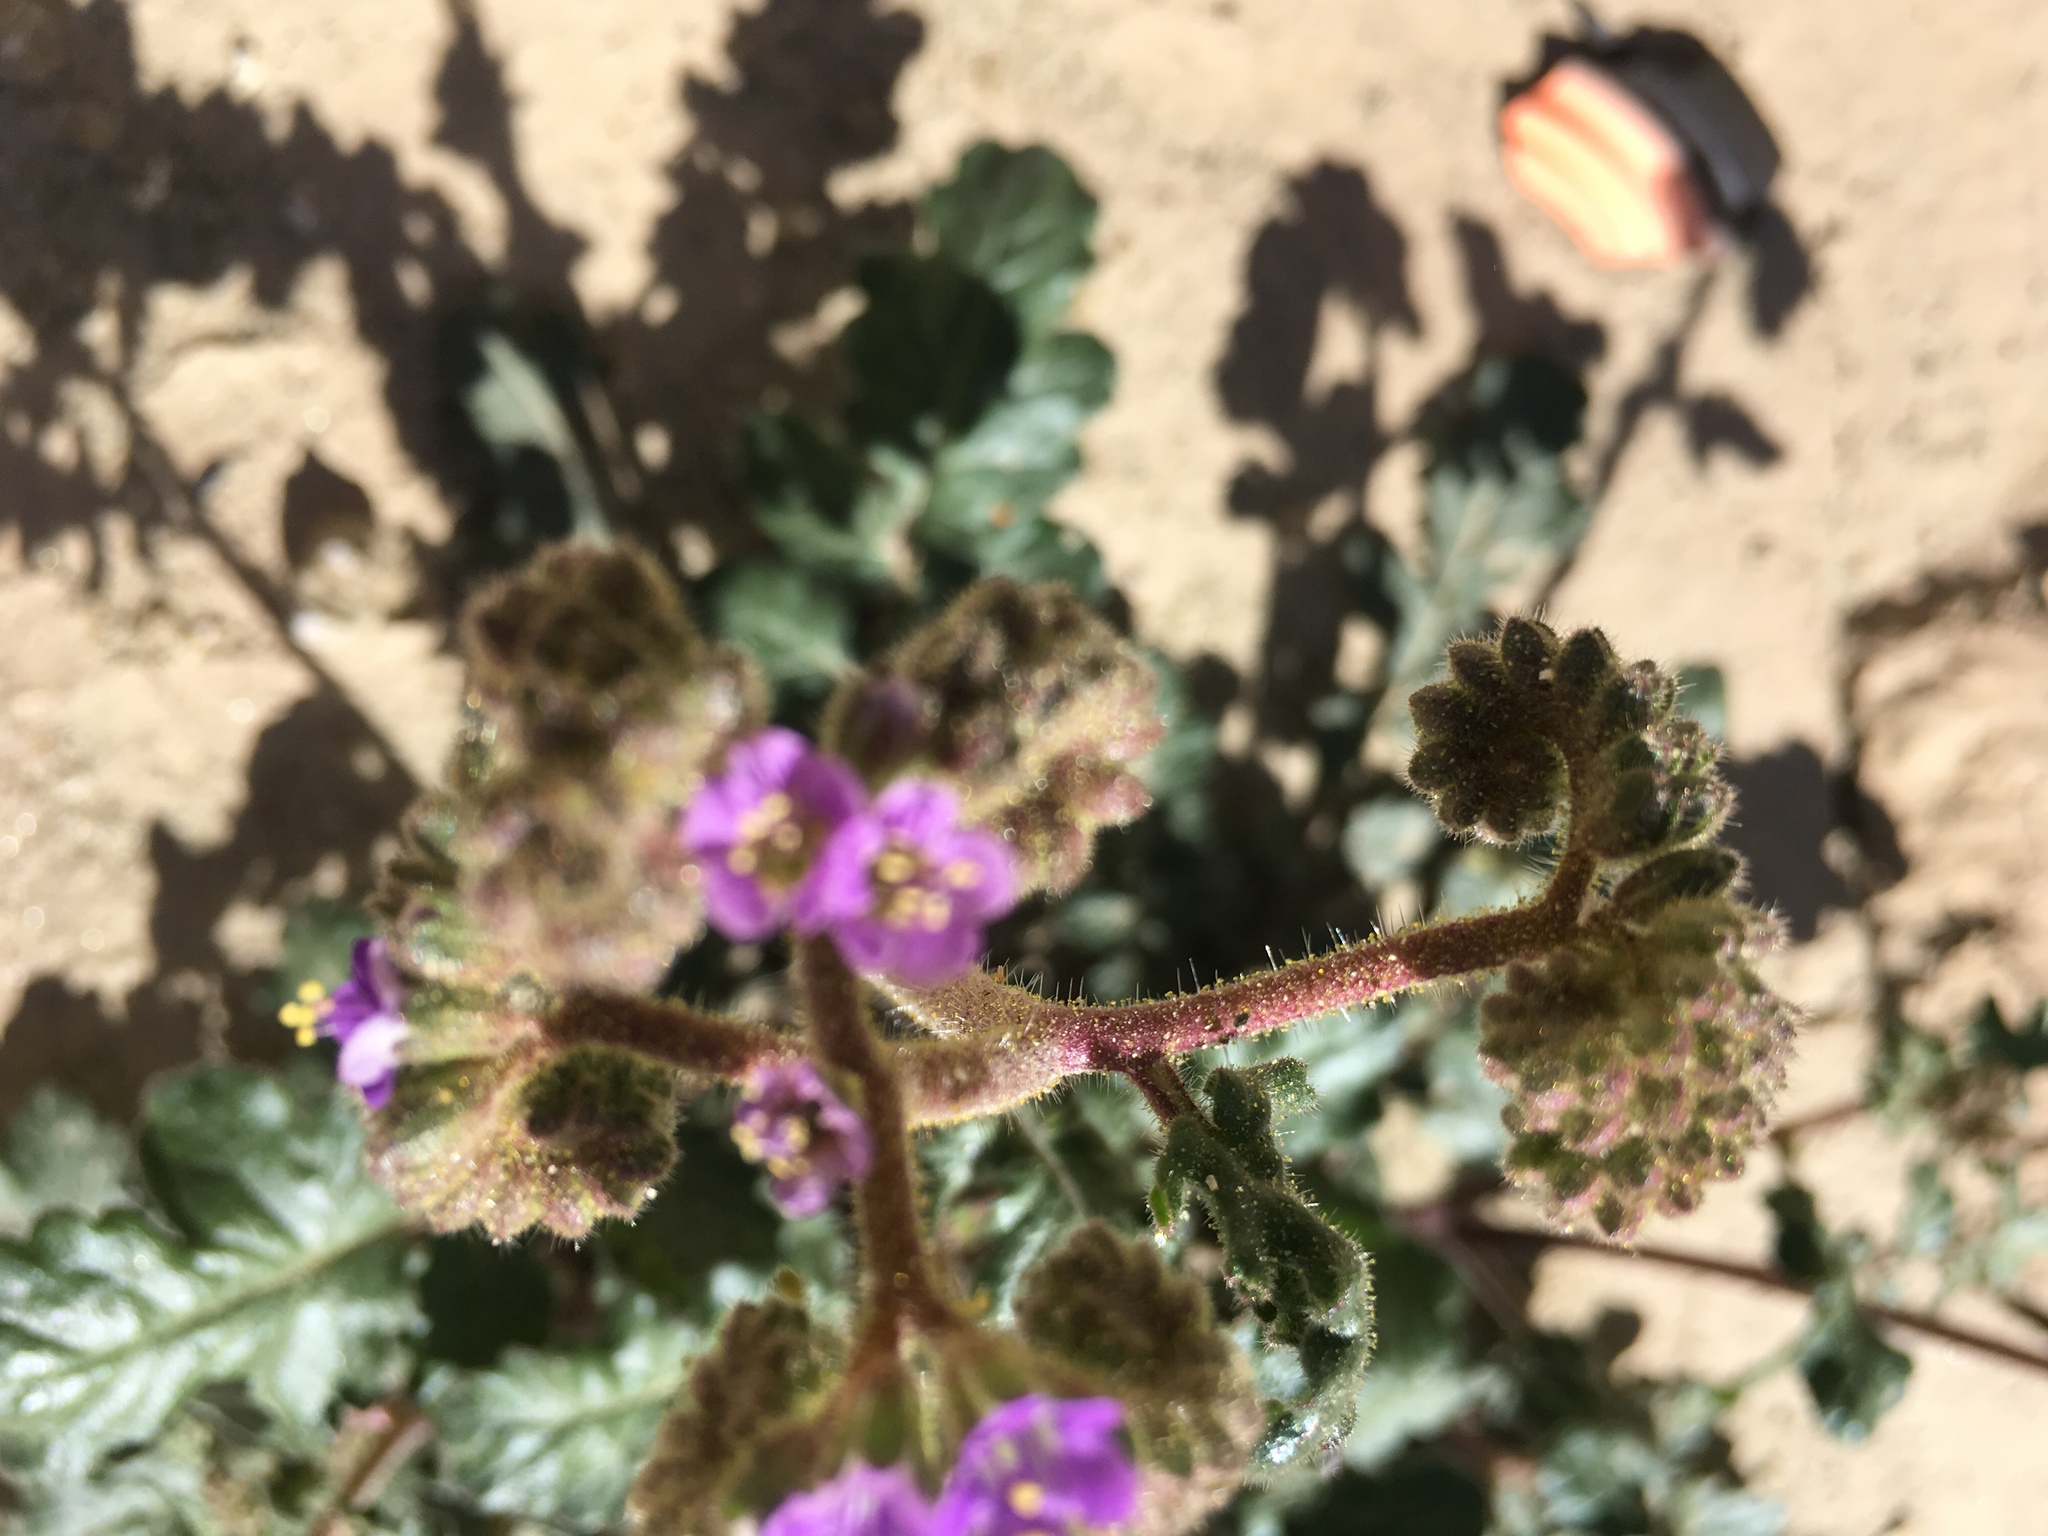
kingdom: Plantae
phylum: Tracheophyta
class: Magnoliopsida
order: Boraginales
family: Hydrophyllaceae
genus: Phacelia
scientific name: Phacelia crenulata
